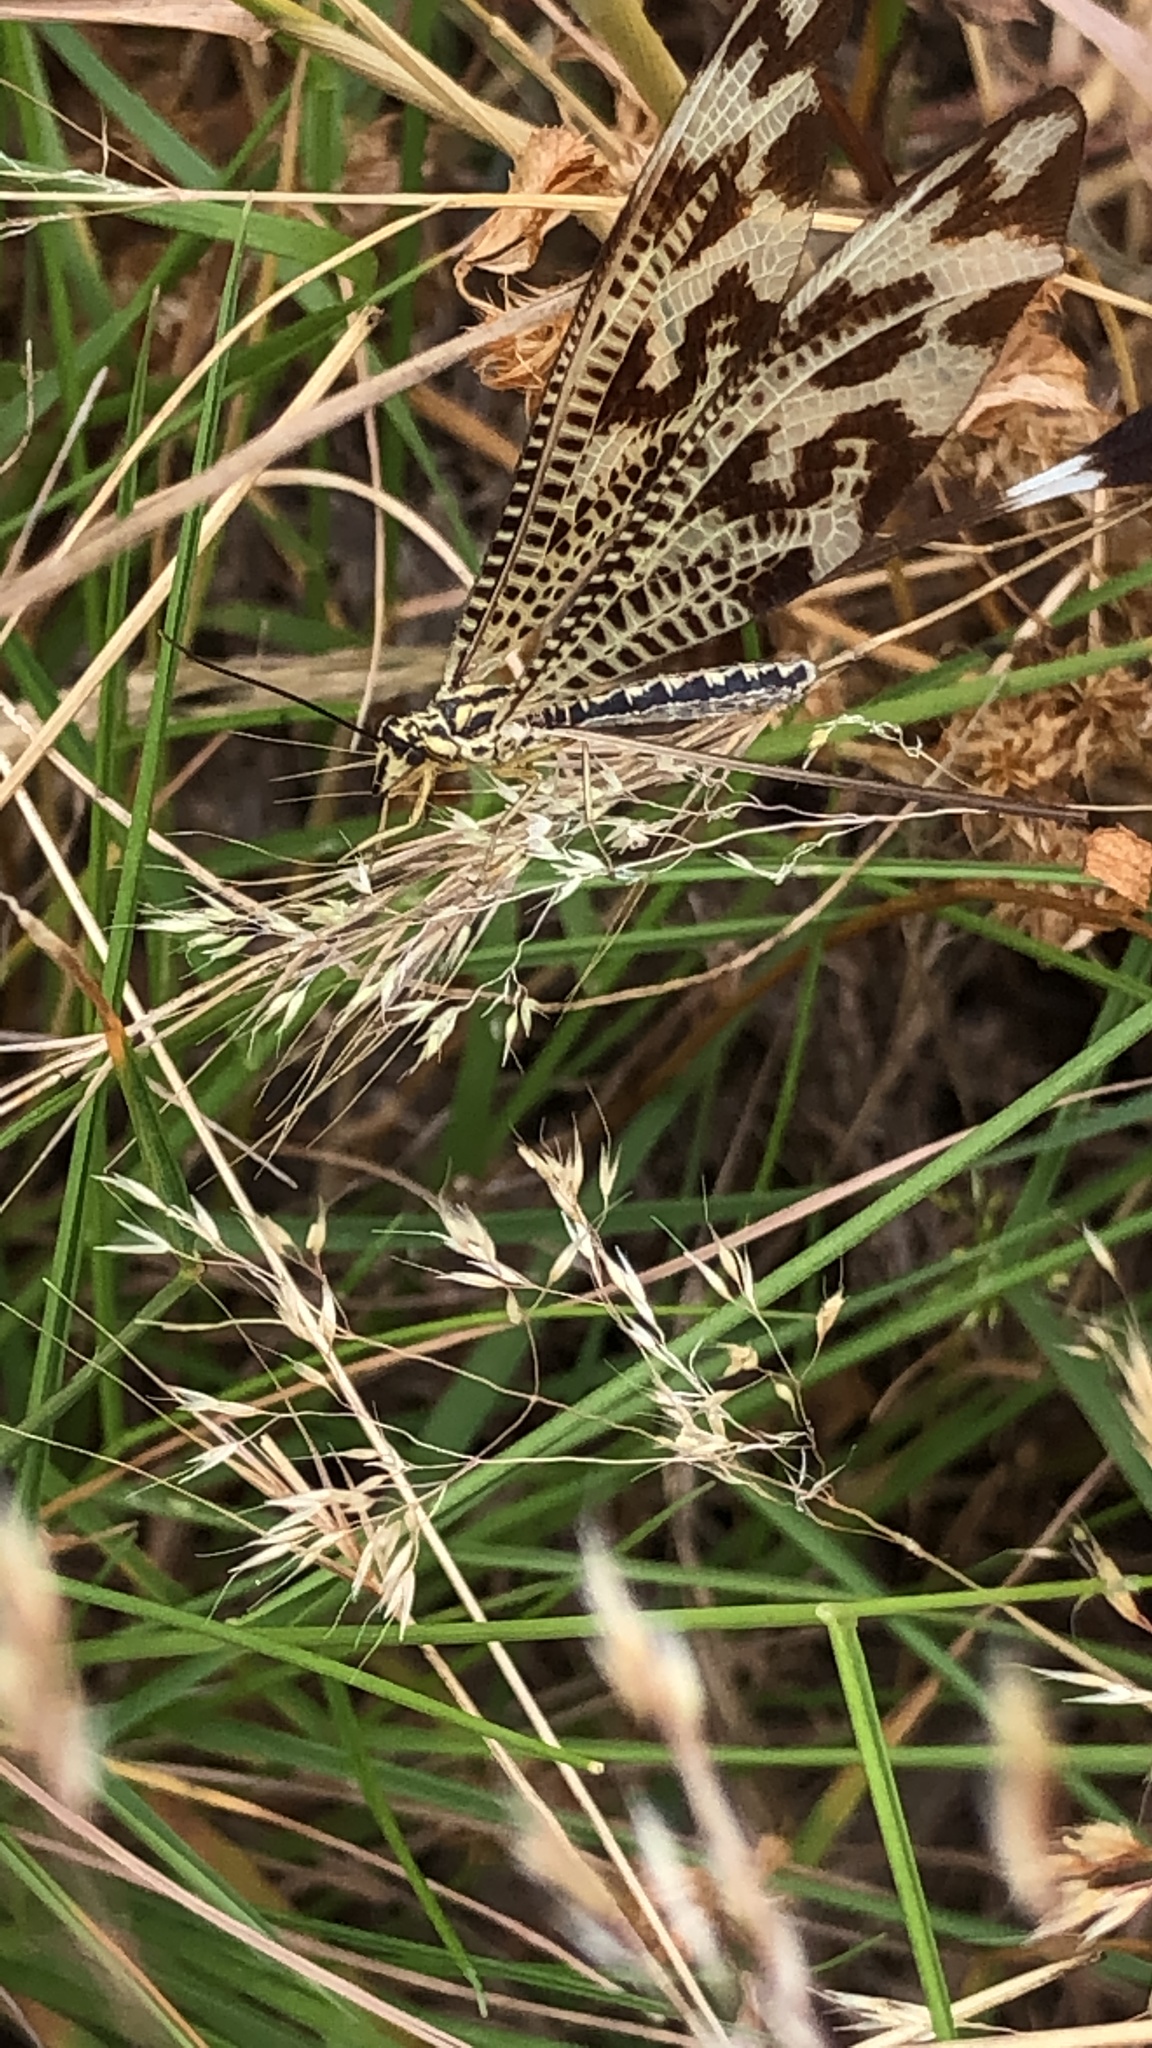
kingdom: Animalia
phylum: Arthropoda
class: Insecta
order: Neuroptera
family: Nemopteridae
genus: Nemoptera
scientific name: Nemoptera bipennis
